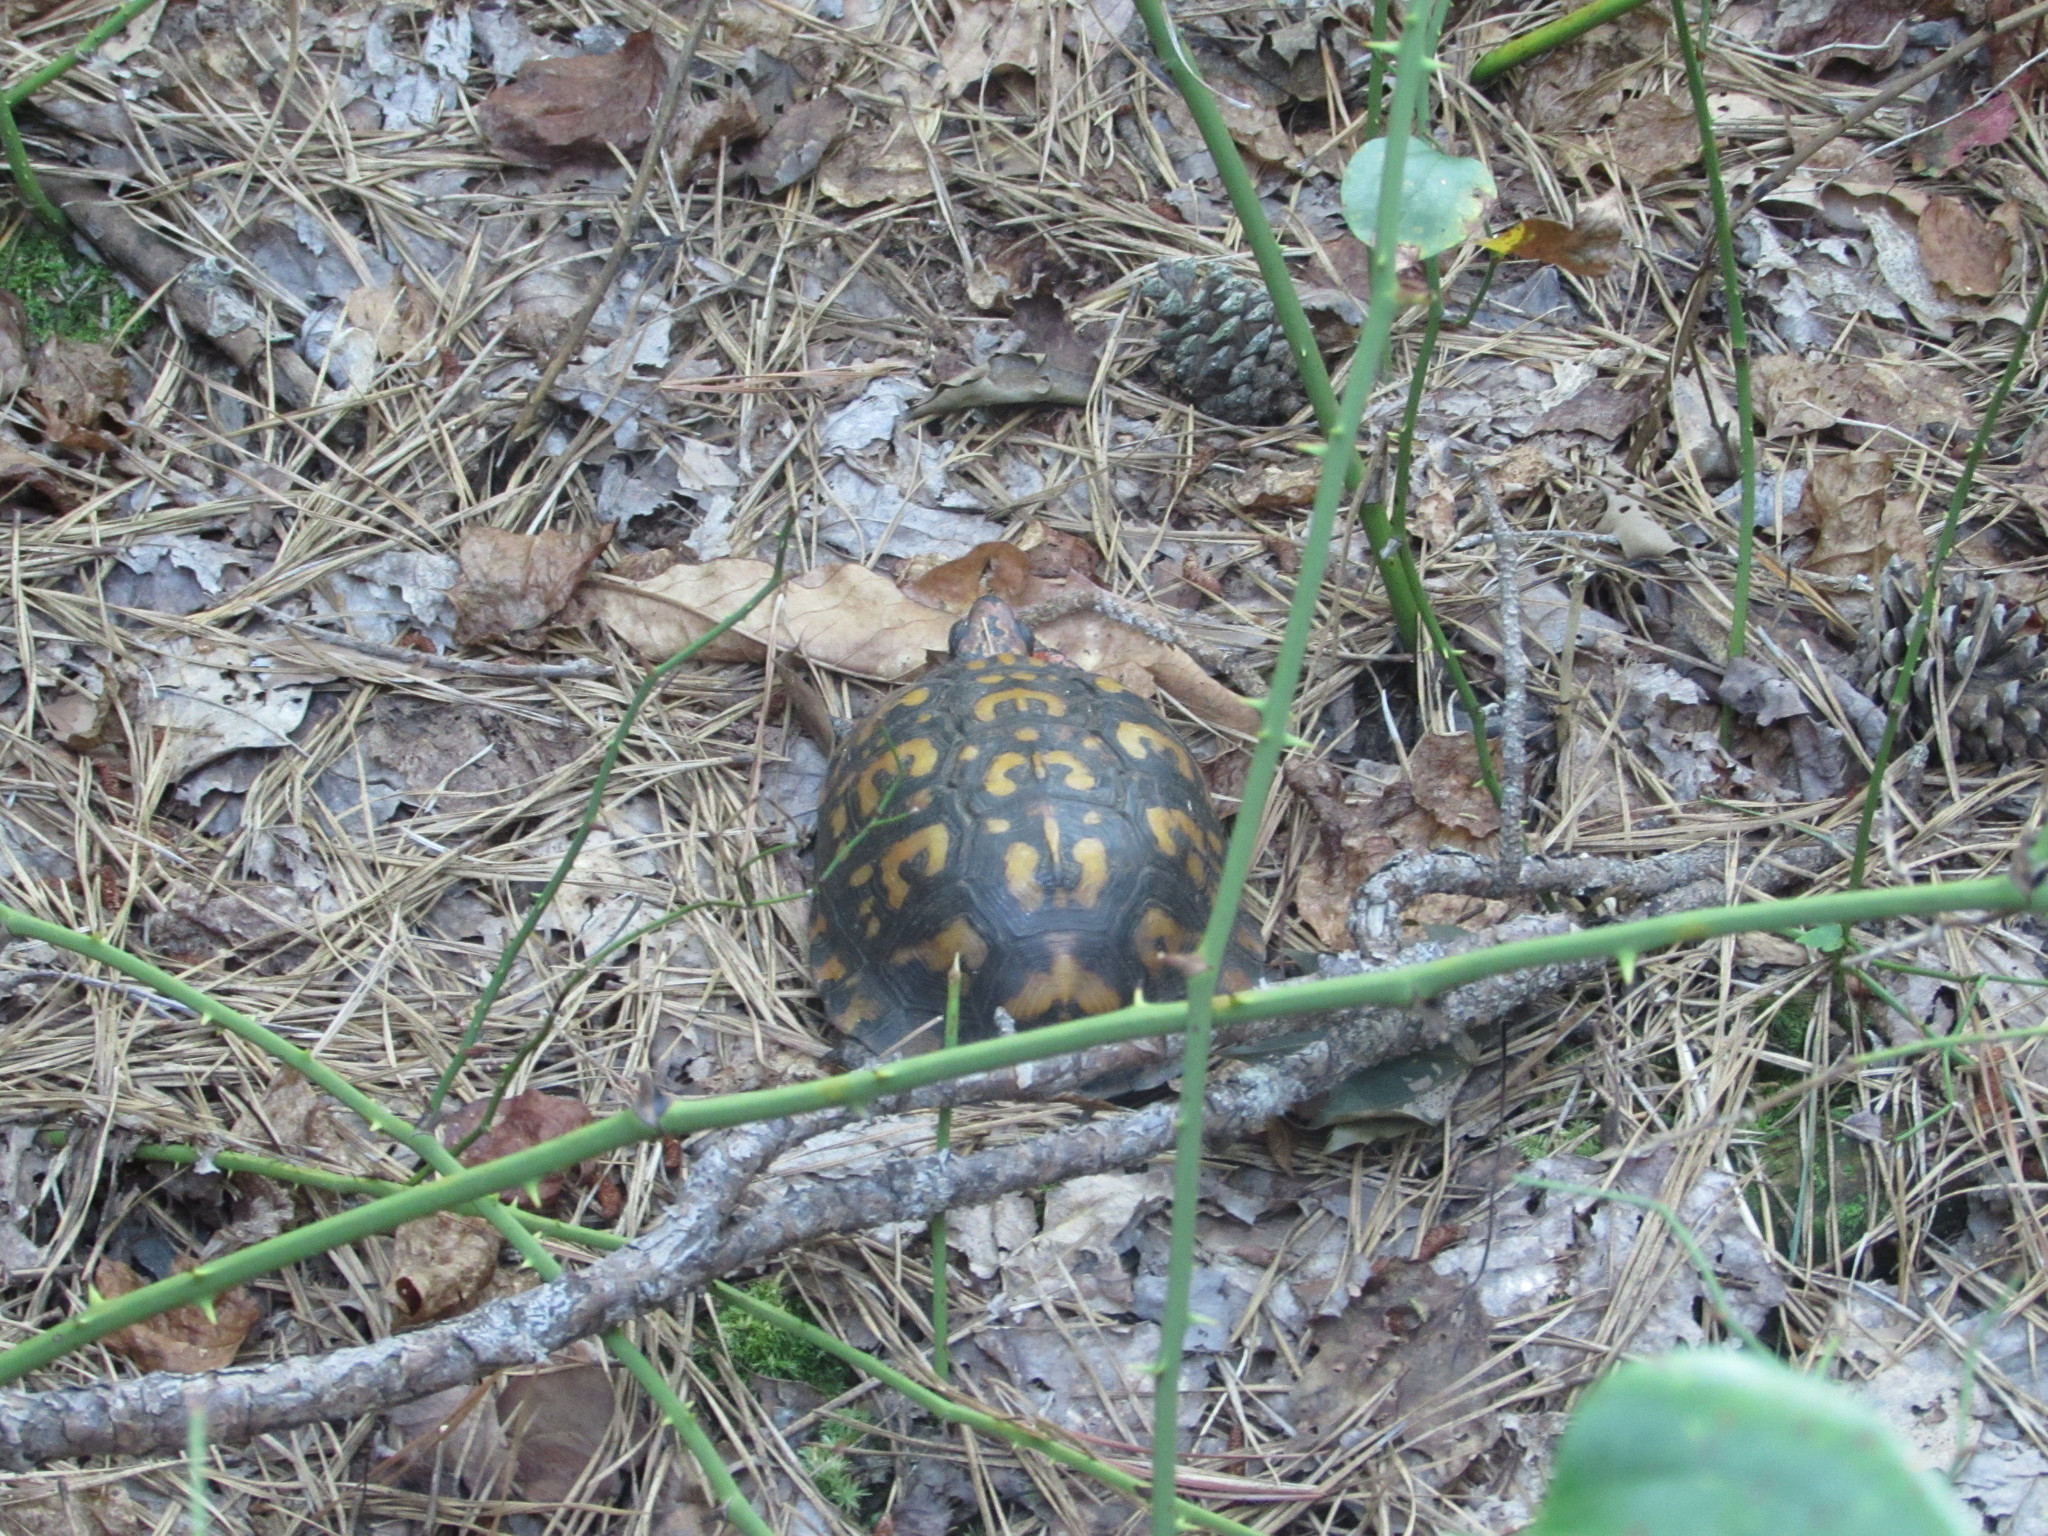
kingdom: Animalia
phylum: Chordata
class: Testudines
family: Emydidae
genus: Terrapene
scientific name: Terrapene carolina
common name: Common box turtle
